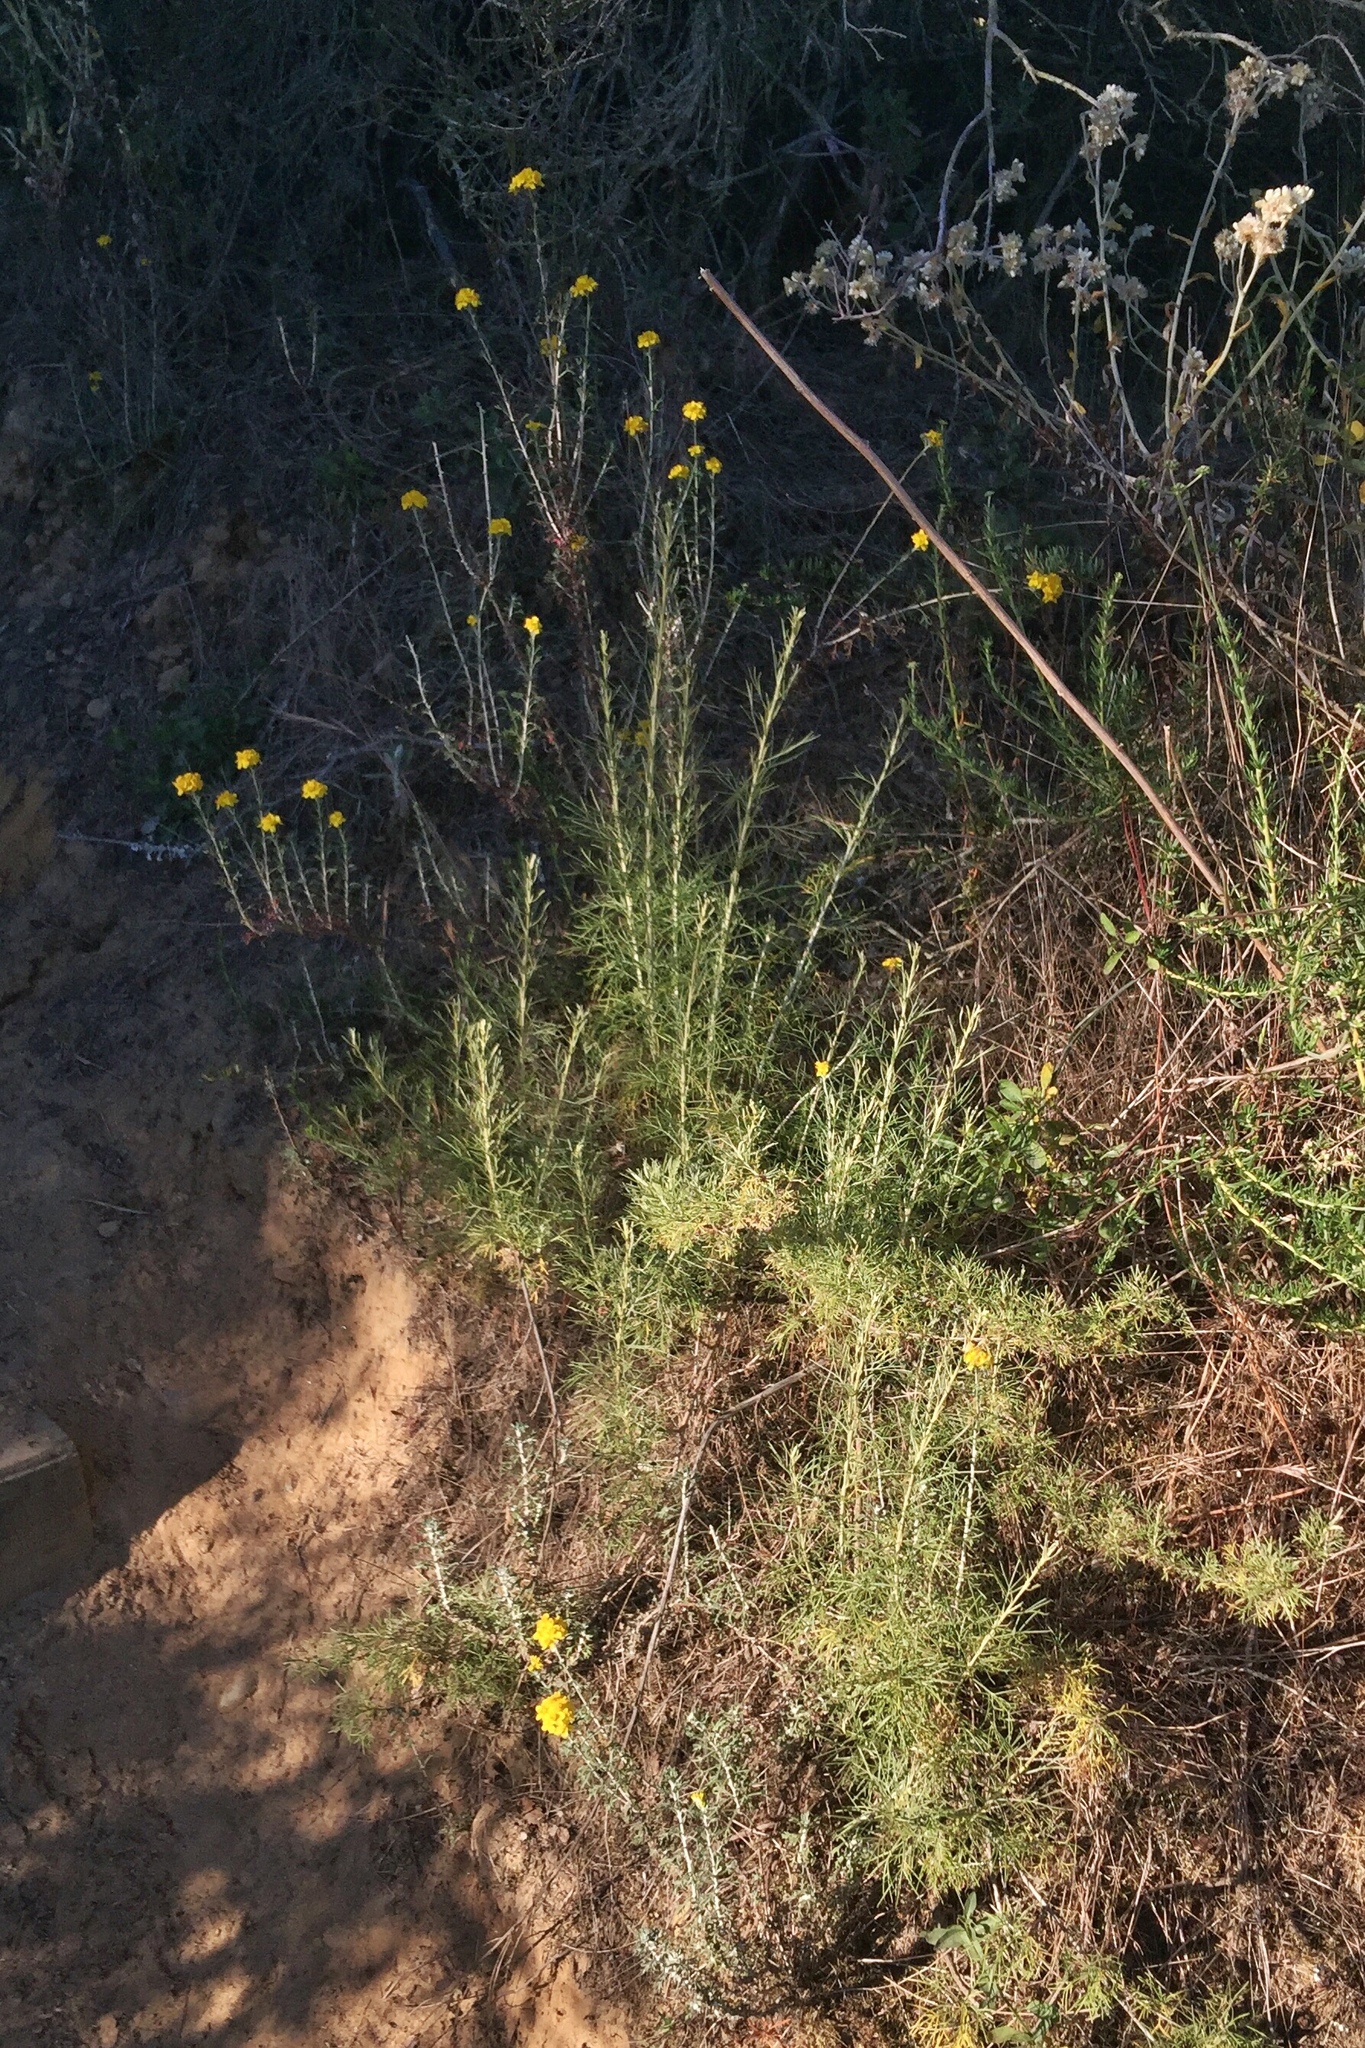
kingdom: Plantae
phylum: Tracheophyta
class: Magnoliopsida
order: Asterales
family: Asteraceae
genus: Eriophyllum
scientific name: Eriophyllum confertiflorum
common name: Golden-yarrow
